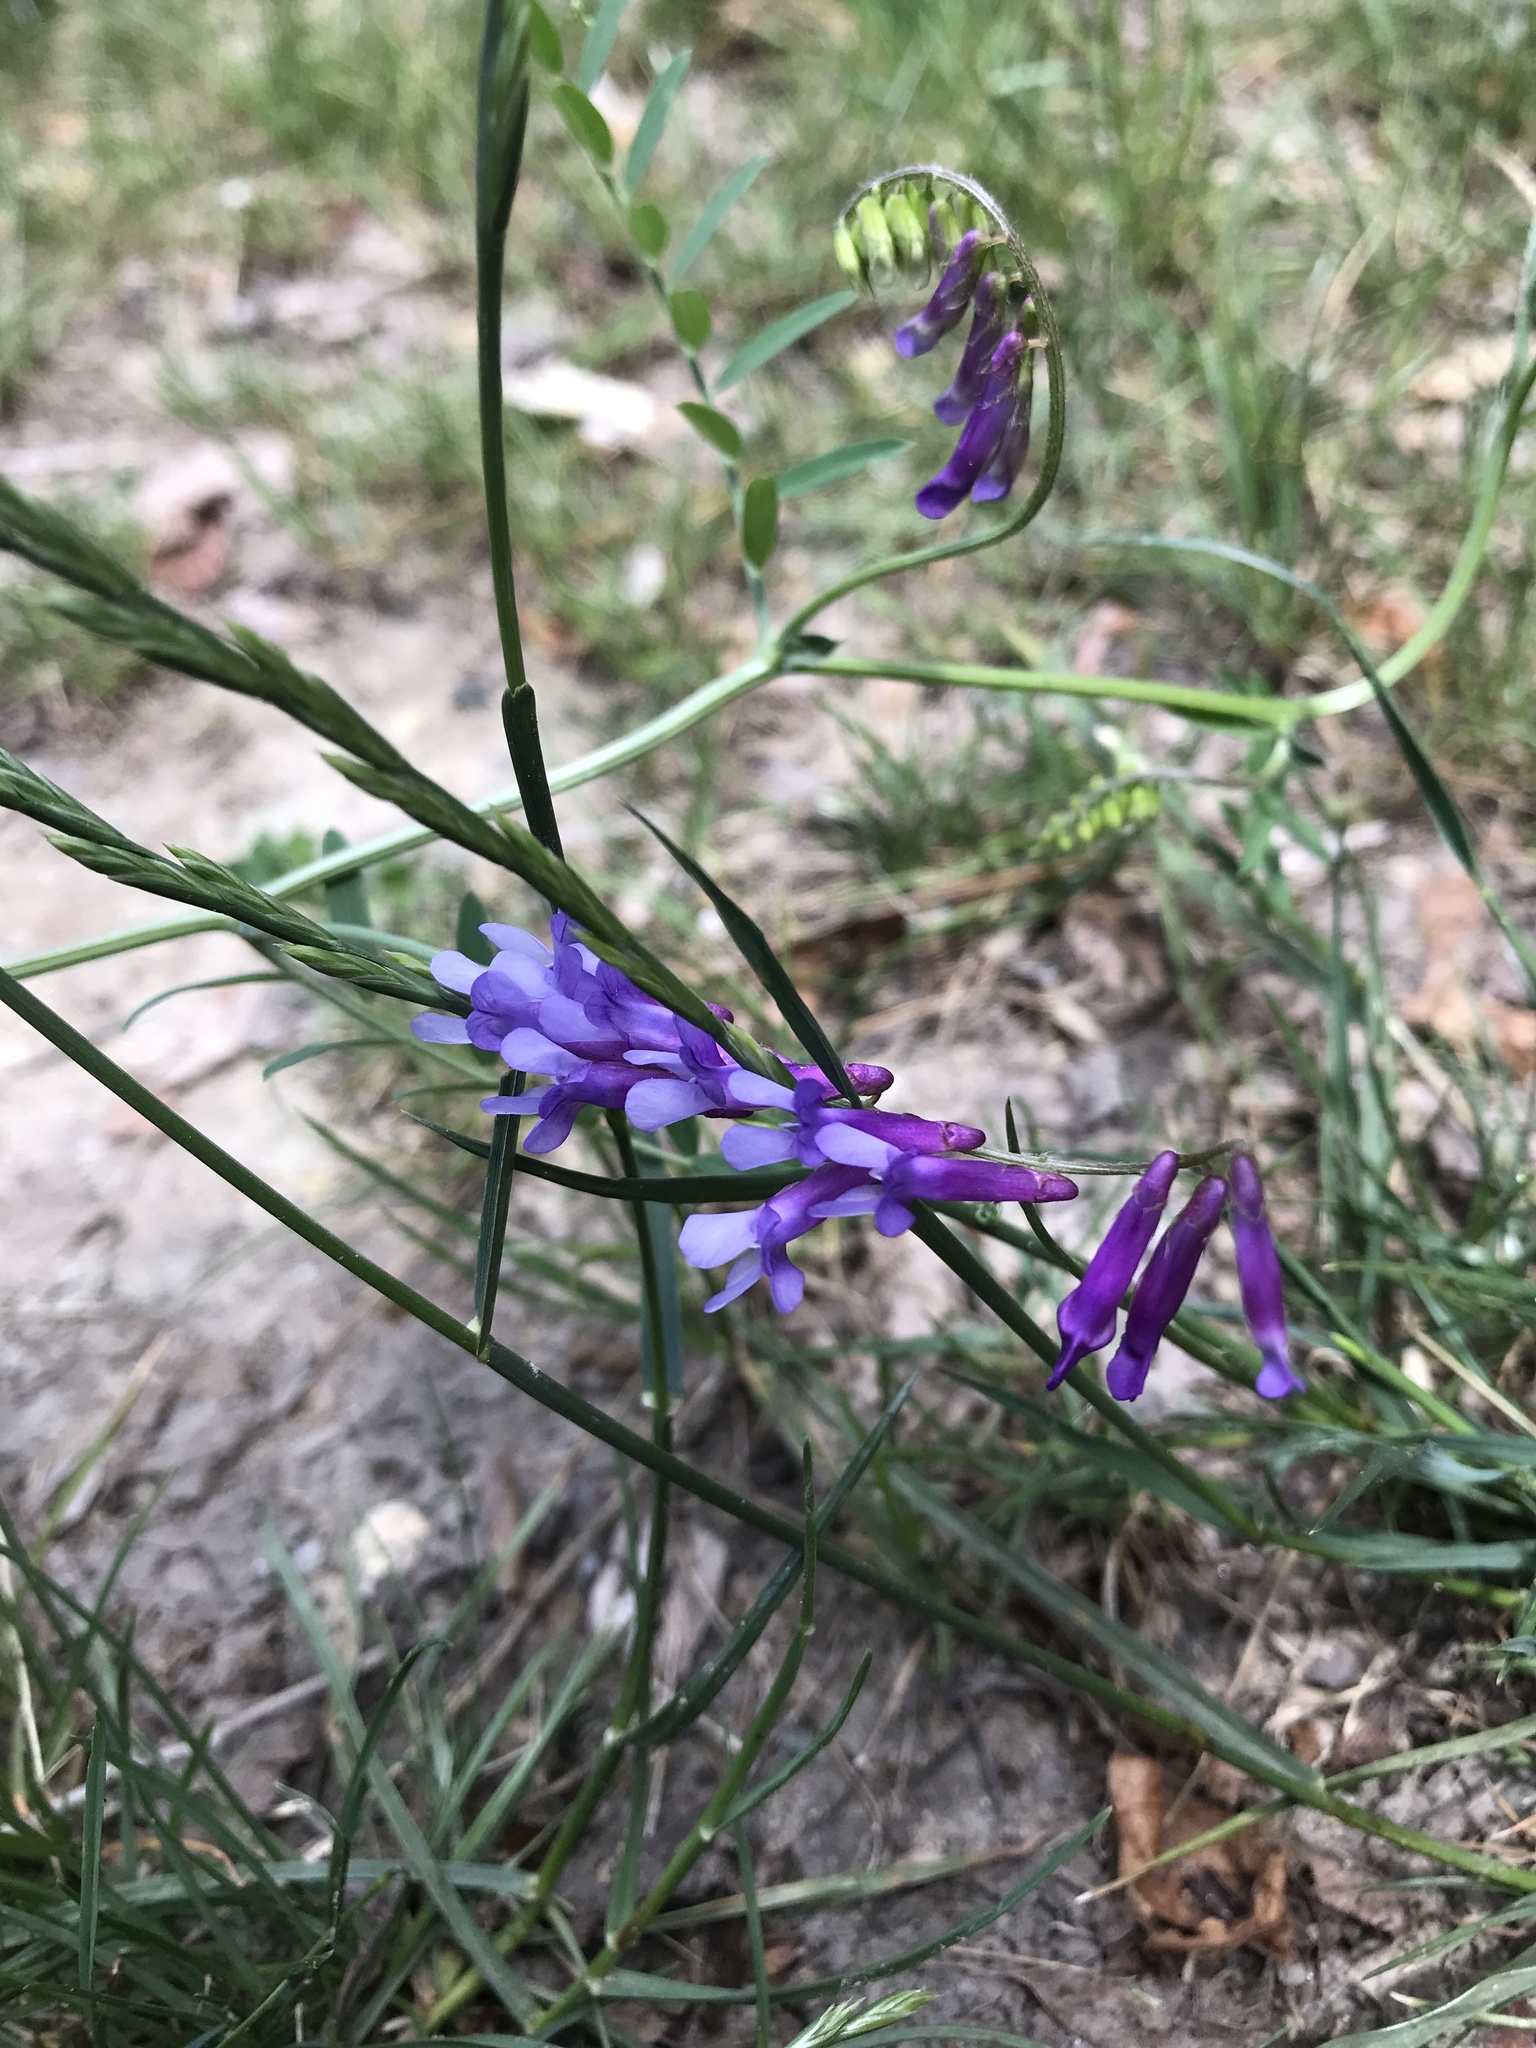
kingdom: Plantae
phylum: Tracheophyta
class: Magnoliopsida
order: Fabales
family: Fabaceae
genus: Vicia
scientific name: Vicia villosa
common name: Fodder vetch
